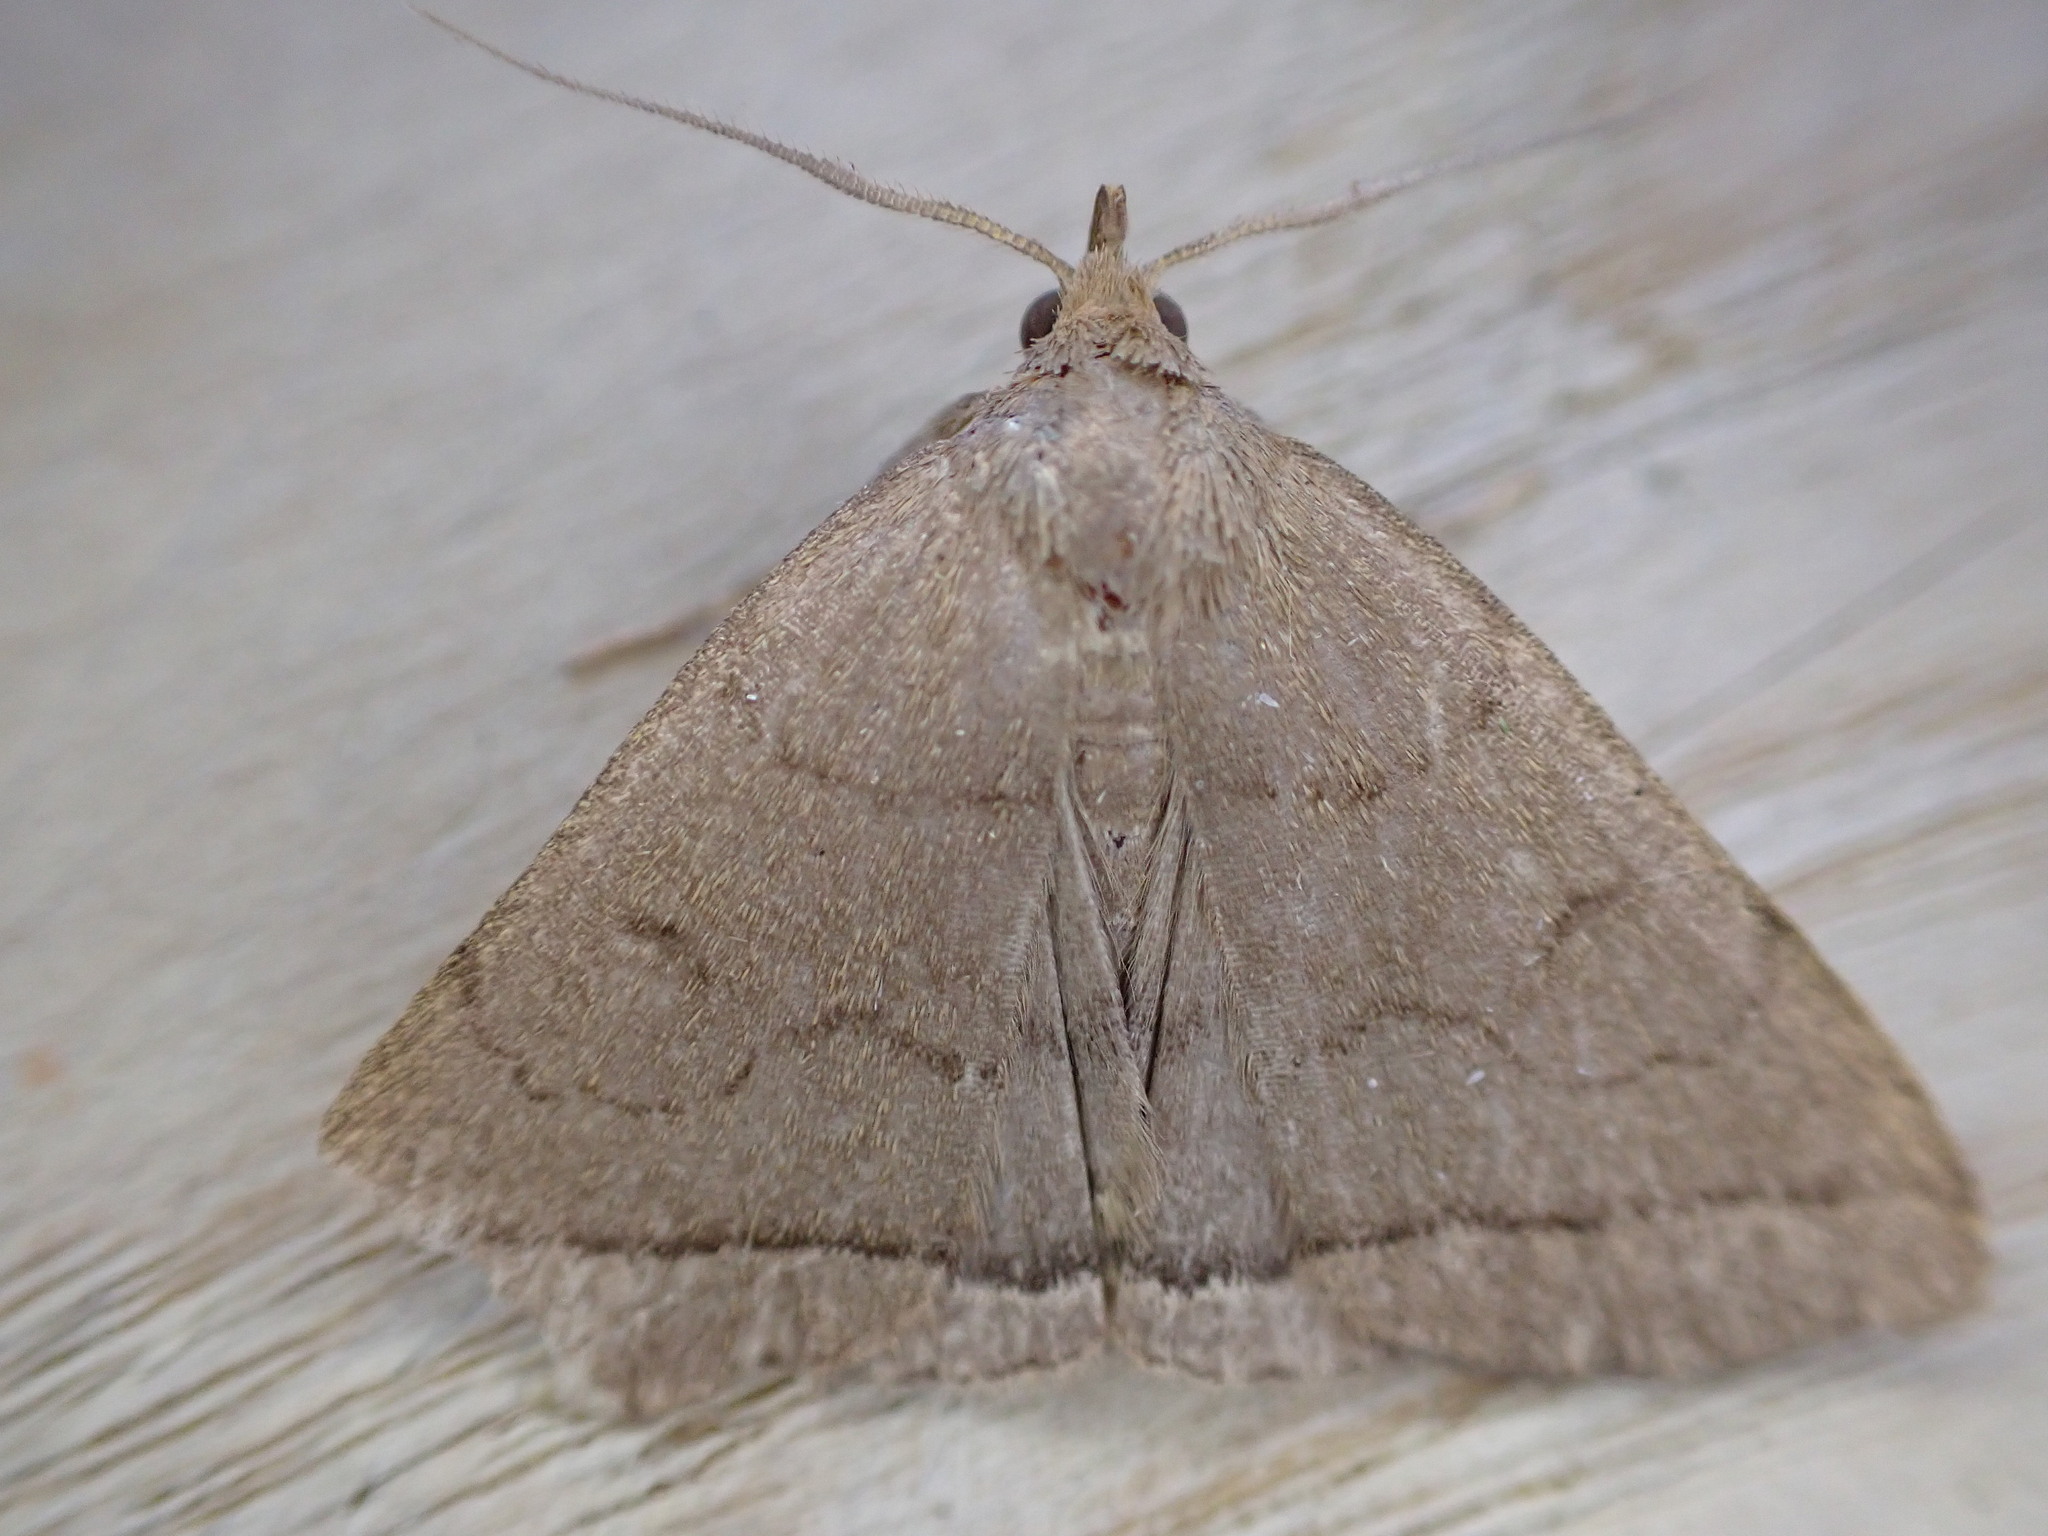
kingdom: Animalia
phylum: Arthropoda
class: Insecta
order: Lepidoptera
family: Erebidae
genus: Herminia
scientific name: Herminia tarsipennalis
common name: Fan-foot
